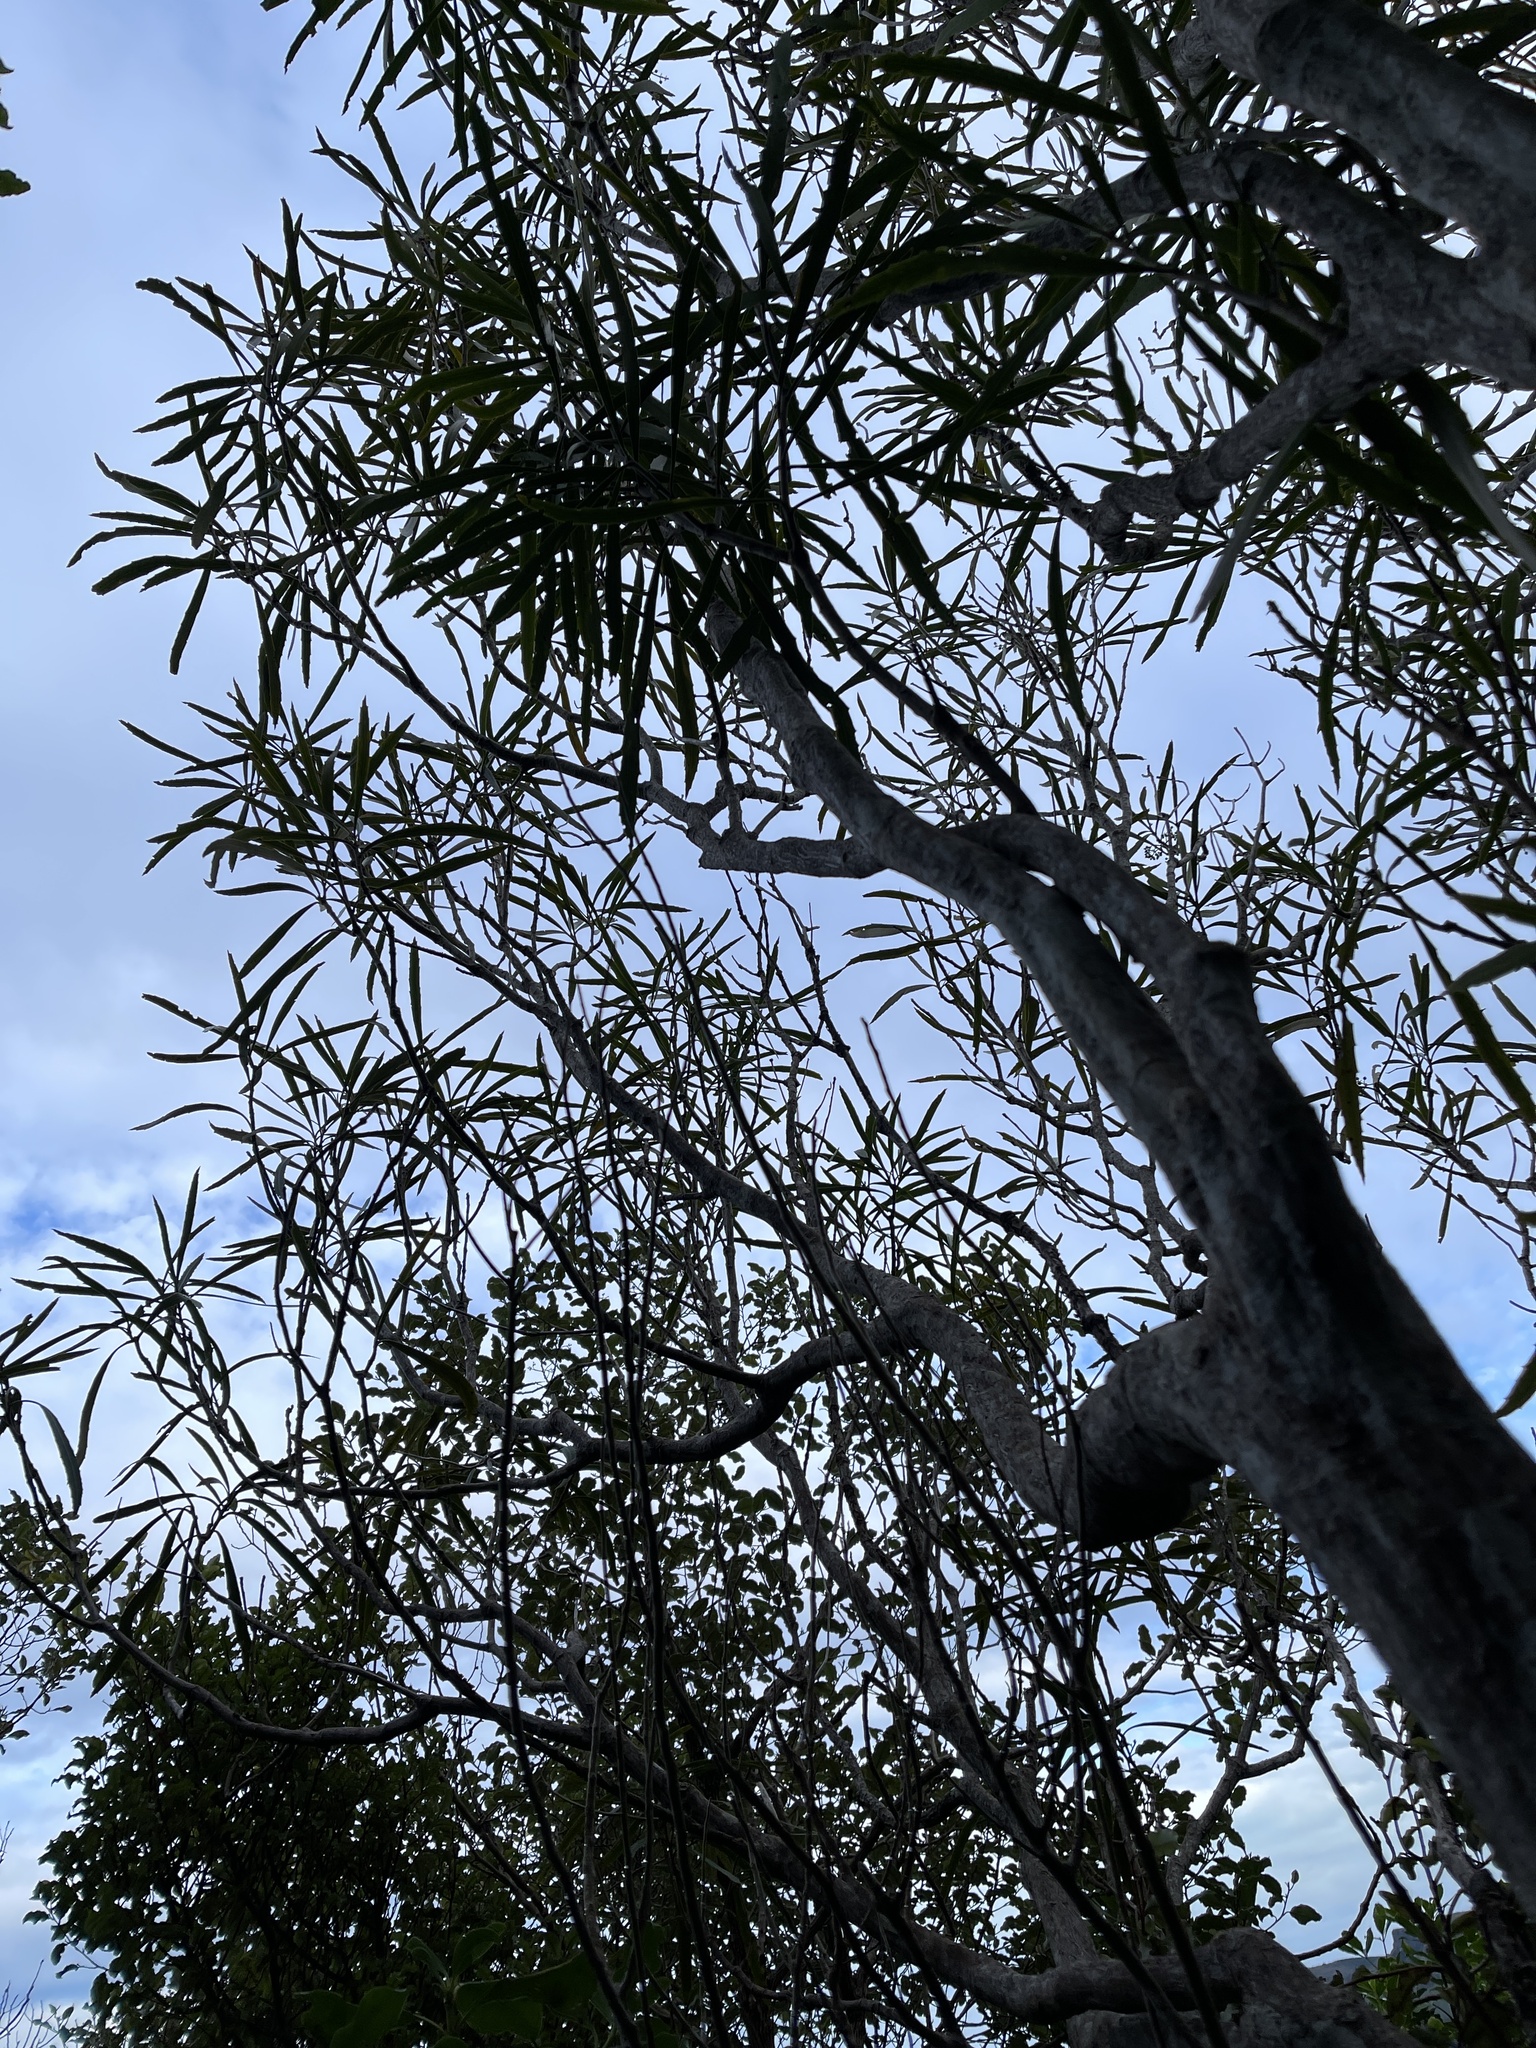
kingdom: Plantae
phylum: Tracheophyta
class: Magnoliopsida
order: Apiales
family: Araliaceae
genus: Pseudopanax
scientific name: Pseudopanax crassifolius
